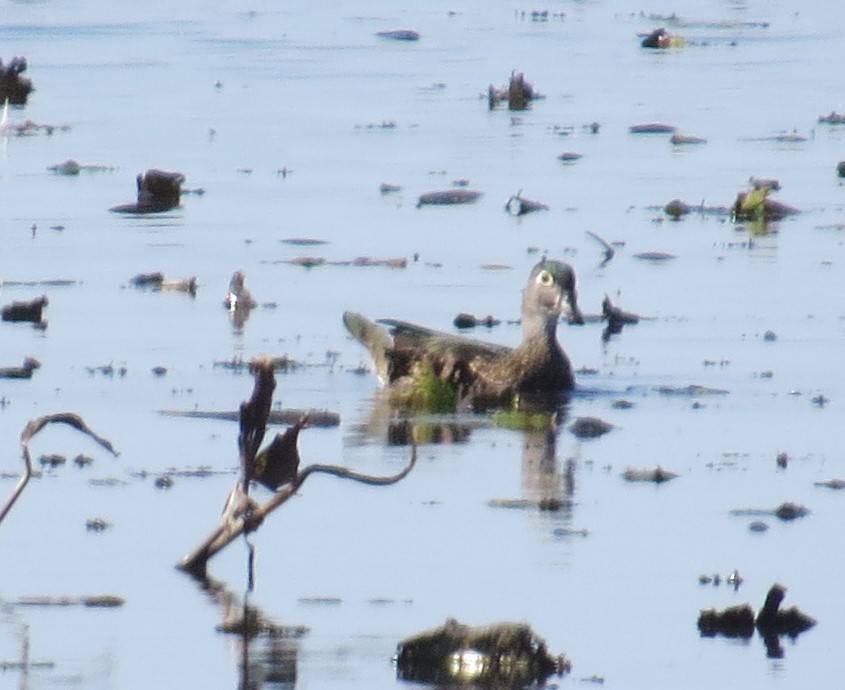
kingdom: Animalia
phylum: Chordata
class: Aves
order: Anseriformes
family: Anatidae
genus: Aix
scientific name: Aix sponsa
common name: Wood duck
